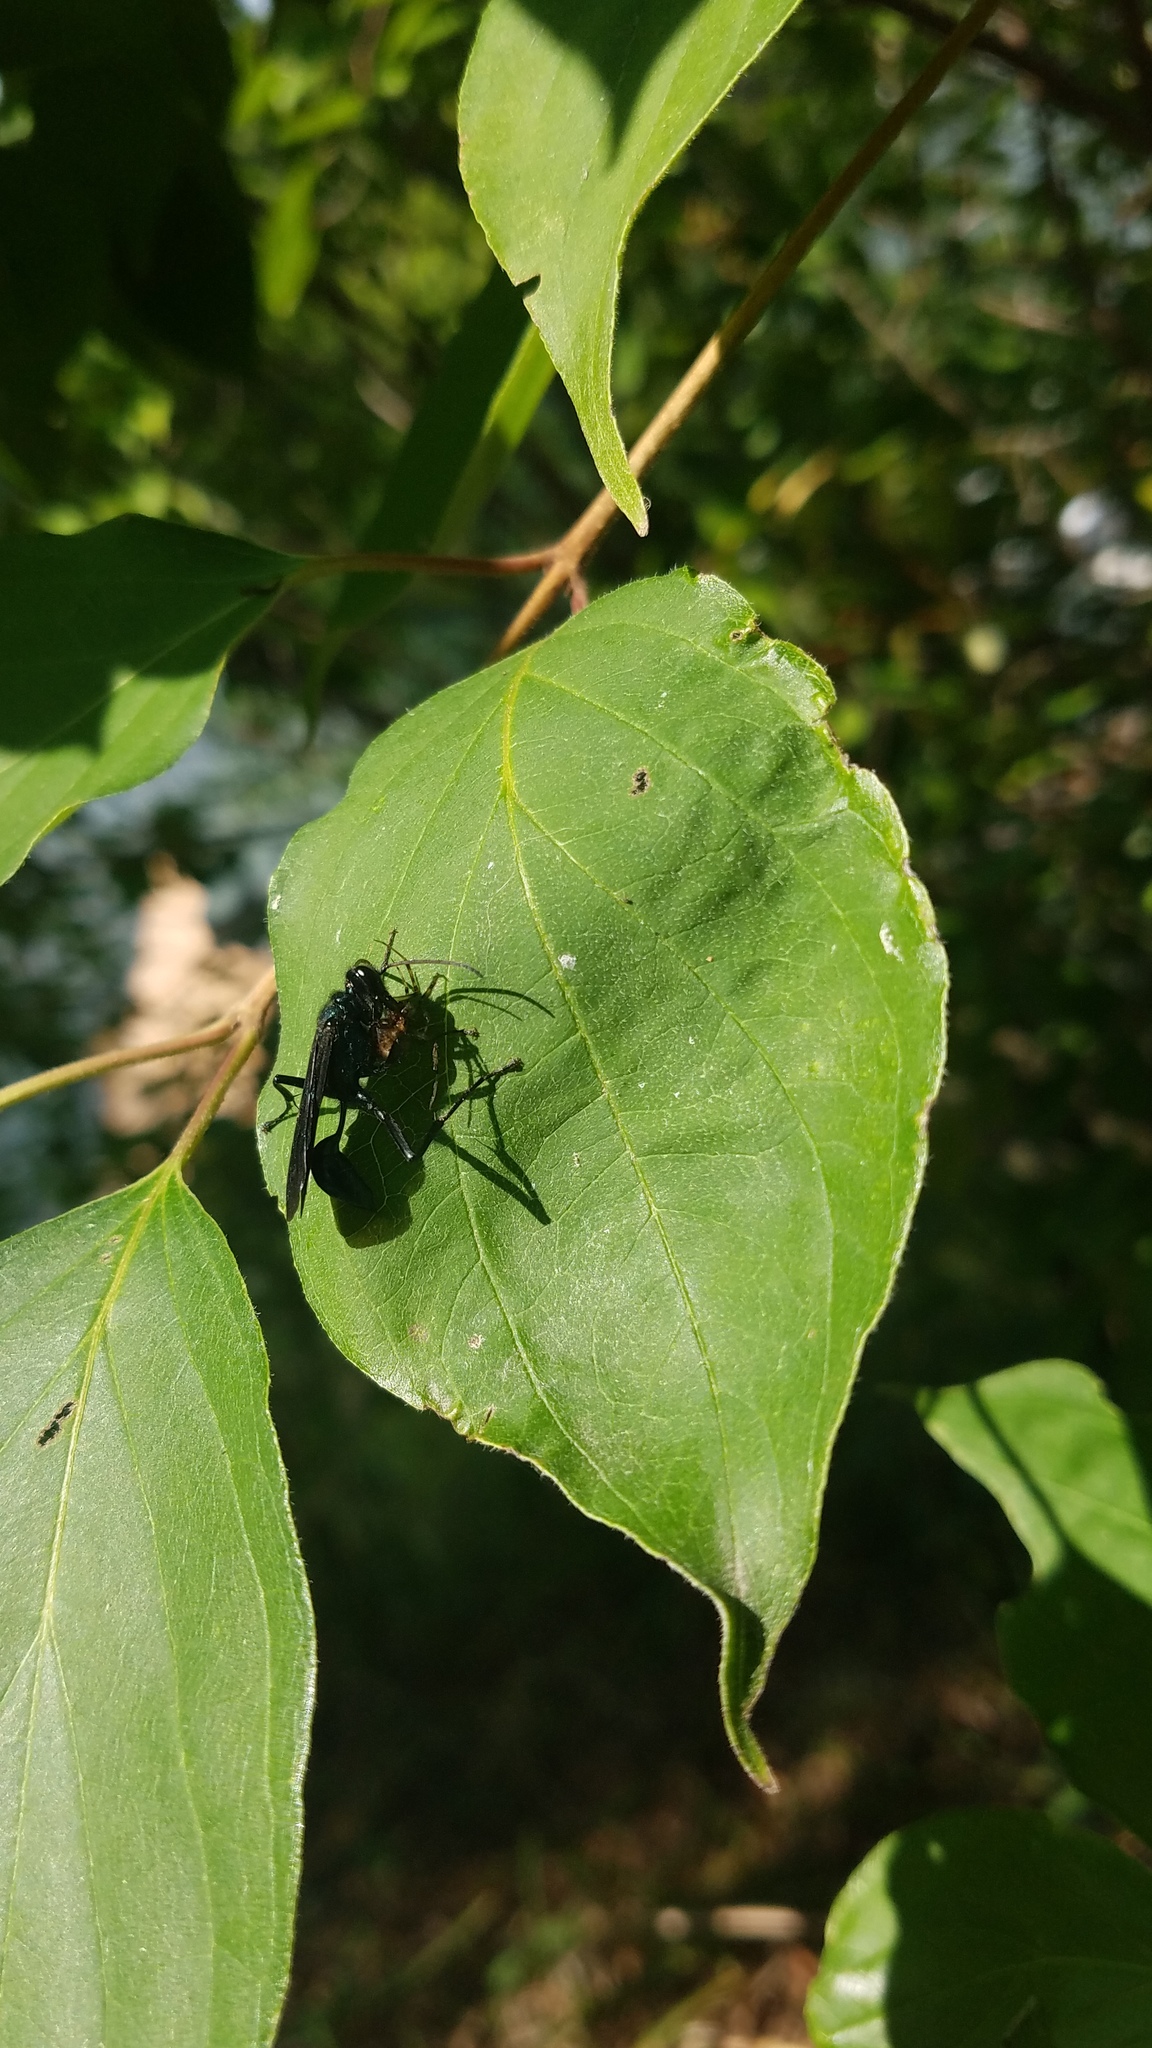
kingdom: Animalia
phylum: Arthropoda
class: Insecta
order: Hymenoptera
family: Sphecidae
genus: Chalybion
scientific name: Chalybion californicum
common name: Mud dauber
